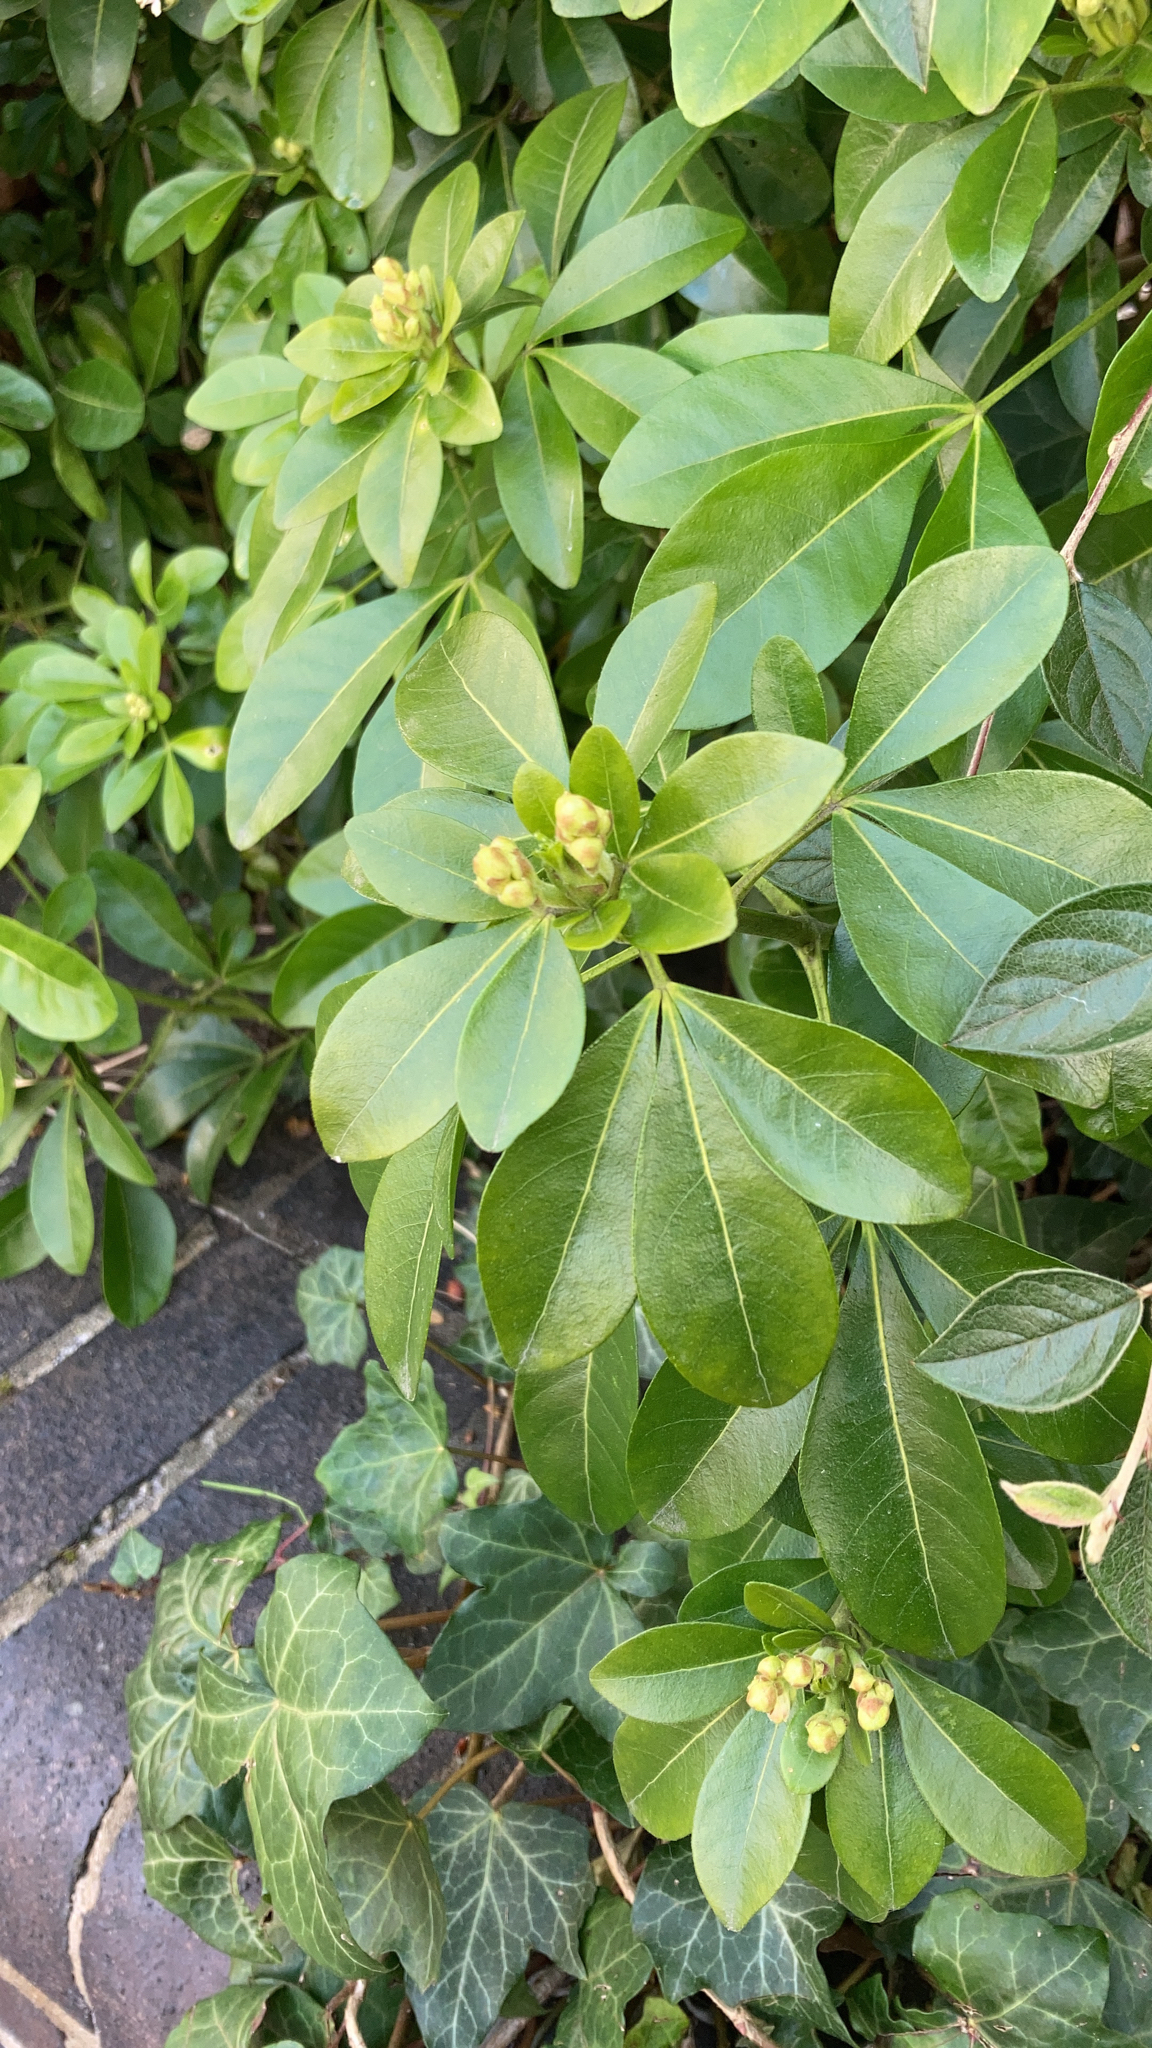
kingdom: Plantae
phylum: Tracheophyta
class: Magnoliopsida
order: Sapindales
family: Rutaceae
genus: Choisya
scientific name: Choisya ternata
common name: Mexican orange
